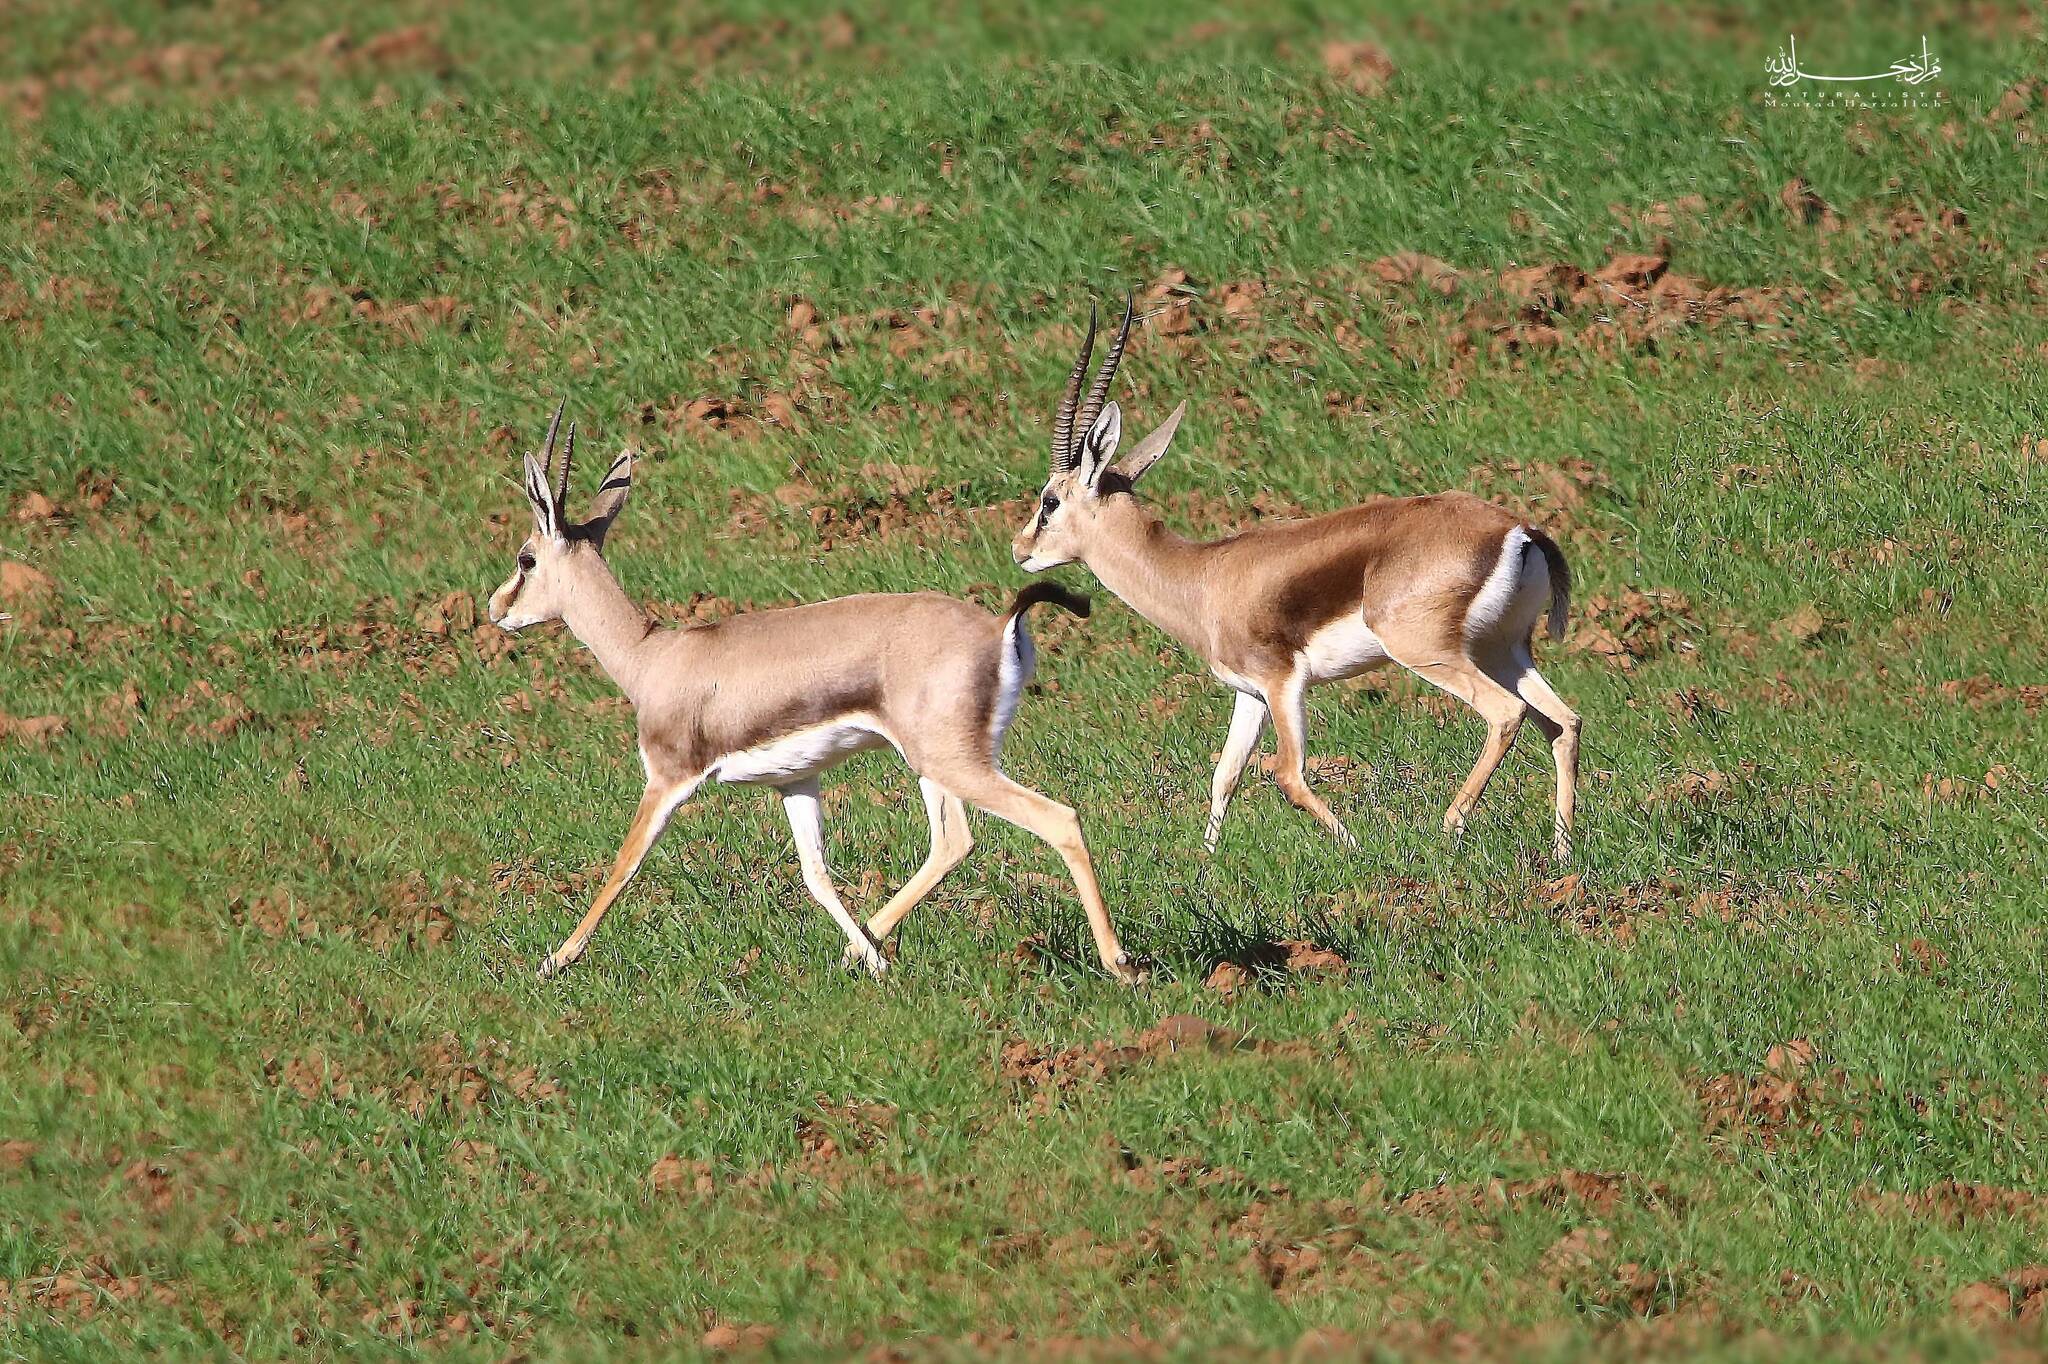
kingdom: Animalia
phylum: Chordata
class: Mammalia
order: Artiodactyla
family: Bovidae
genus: Gazella
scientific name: Gazella cuvieri
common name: Cuvier's gazelle
